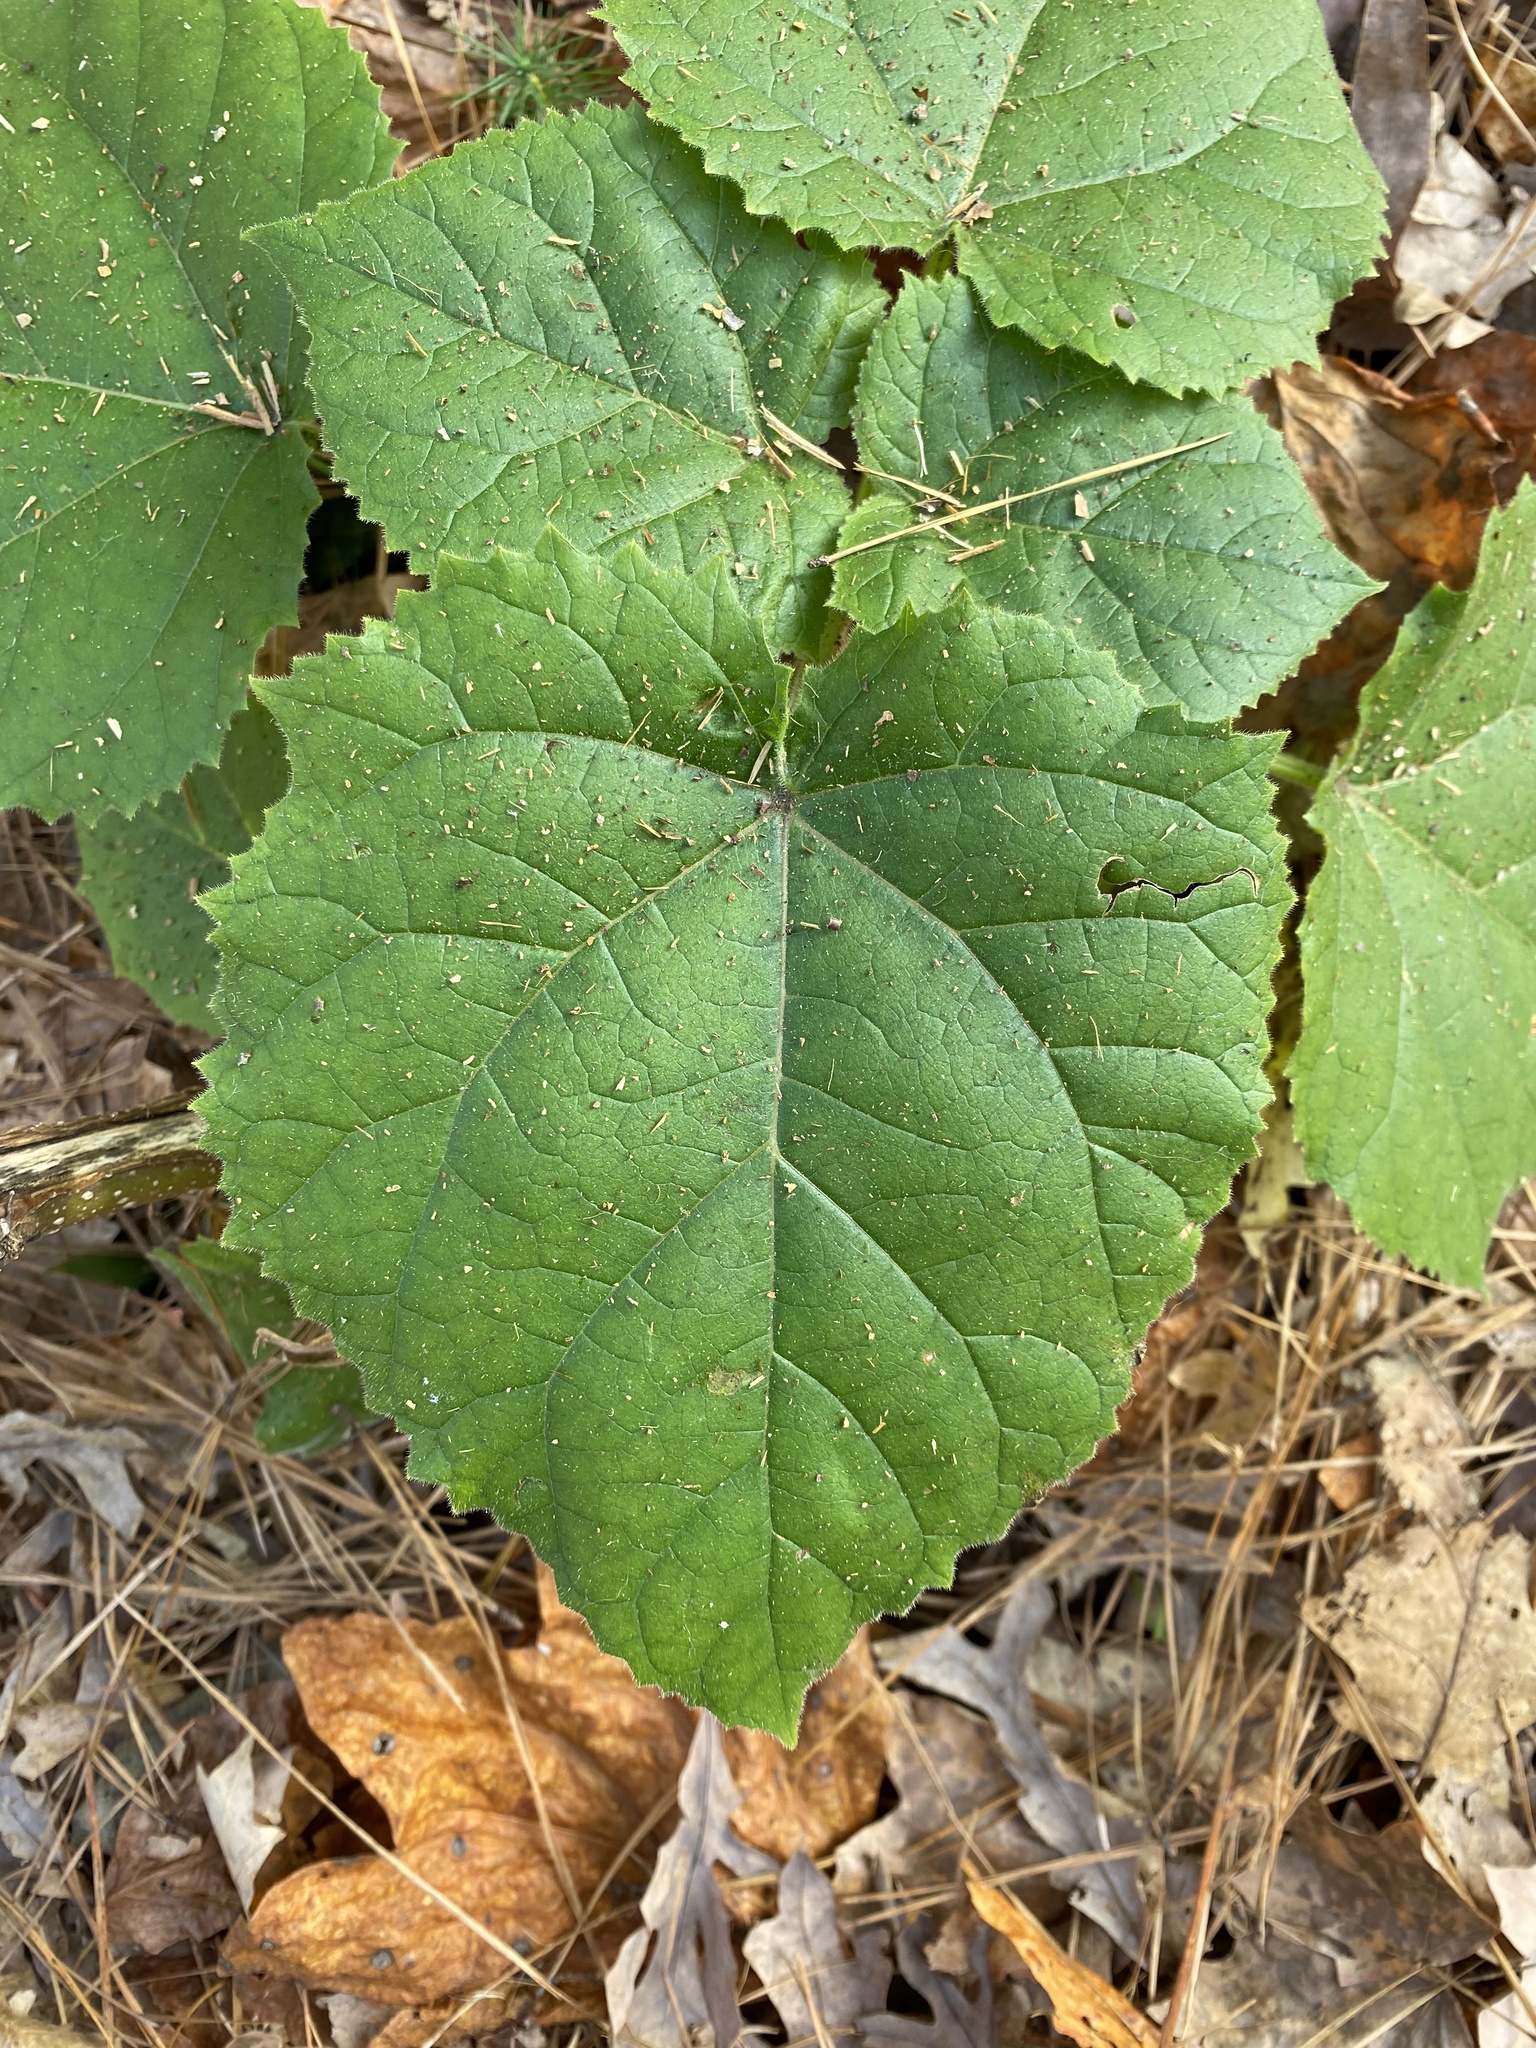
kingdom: Plantae
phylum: Tracheophyta
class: Magnoliopsida
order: Lamiales
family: Paulowniaceae
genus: Paulownia
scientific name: Paulownia tomentosa
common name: Foxglove-tree
